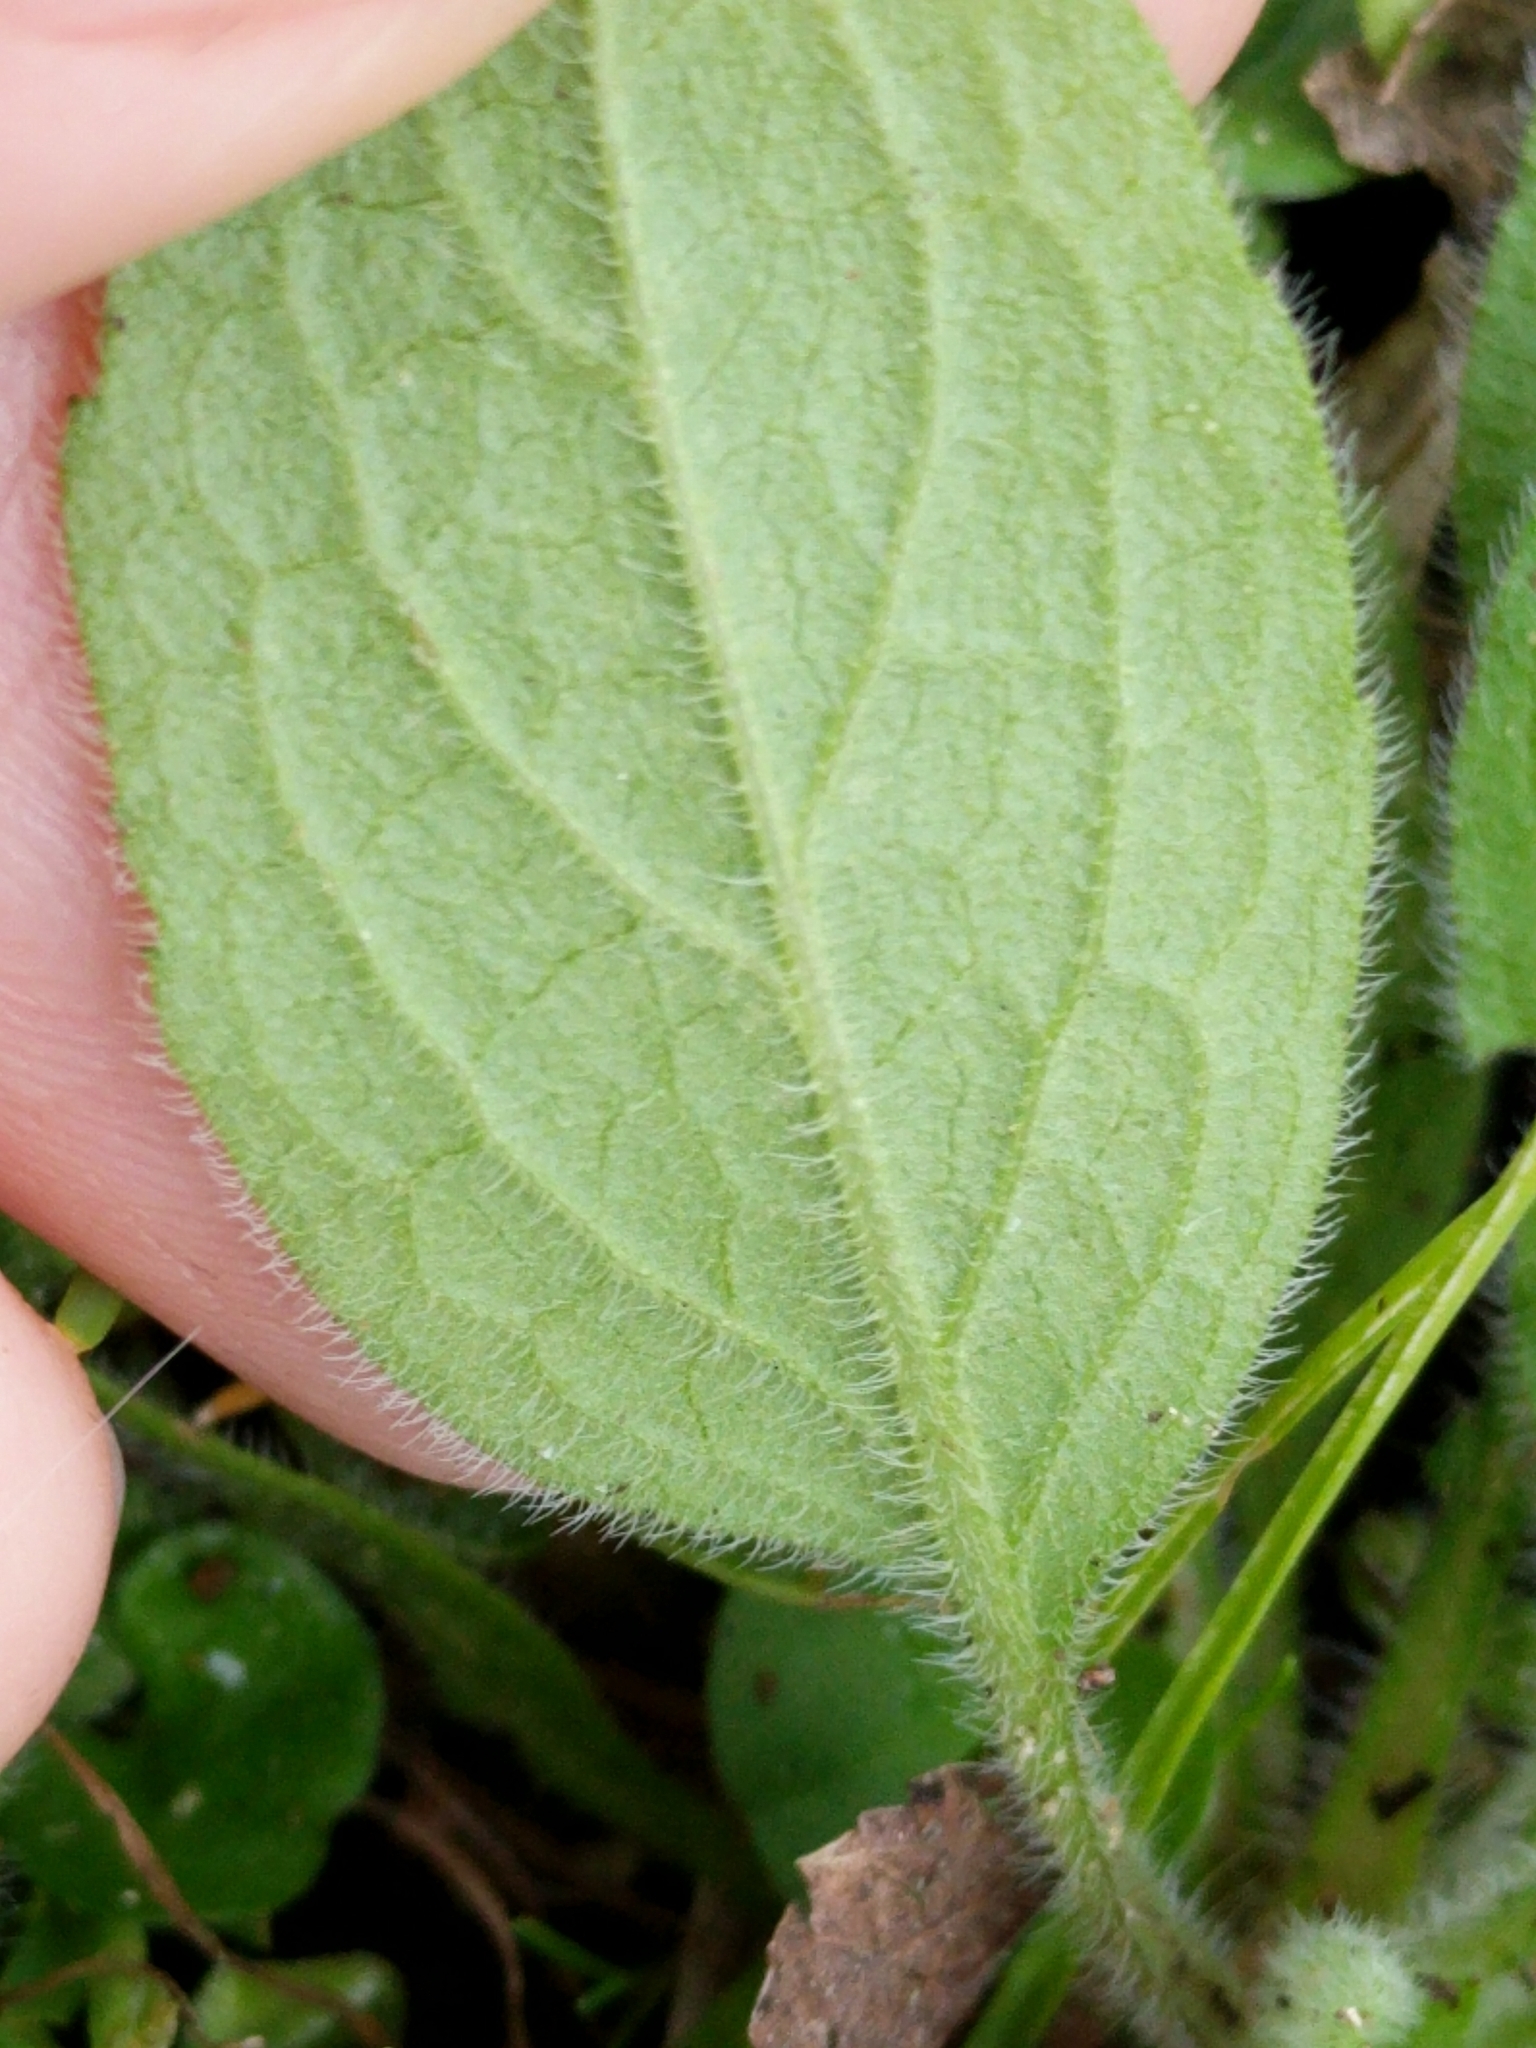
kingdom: Plantae
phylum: Tracheophyta
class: Magnoliopsida
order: Asterales
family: Asteraceae
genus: Heterotheca
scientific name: Heterotheca subaxillaris
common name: Camphorweed
